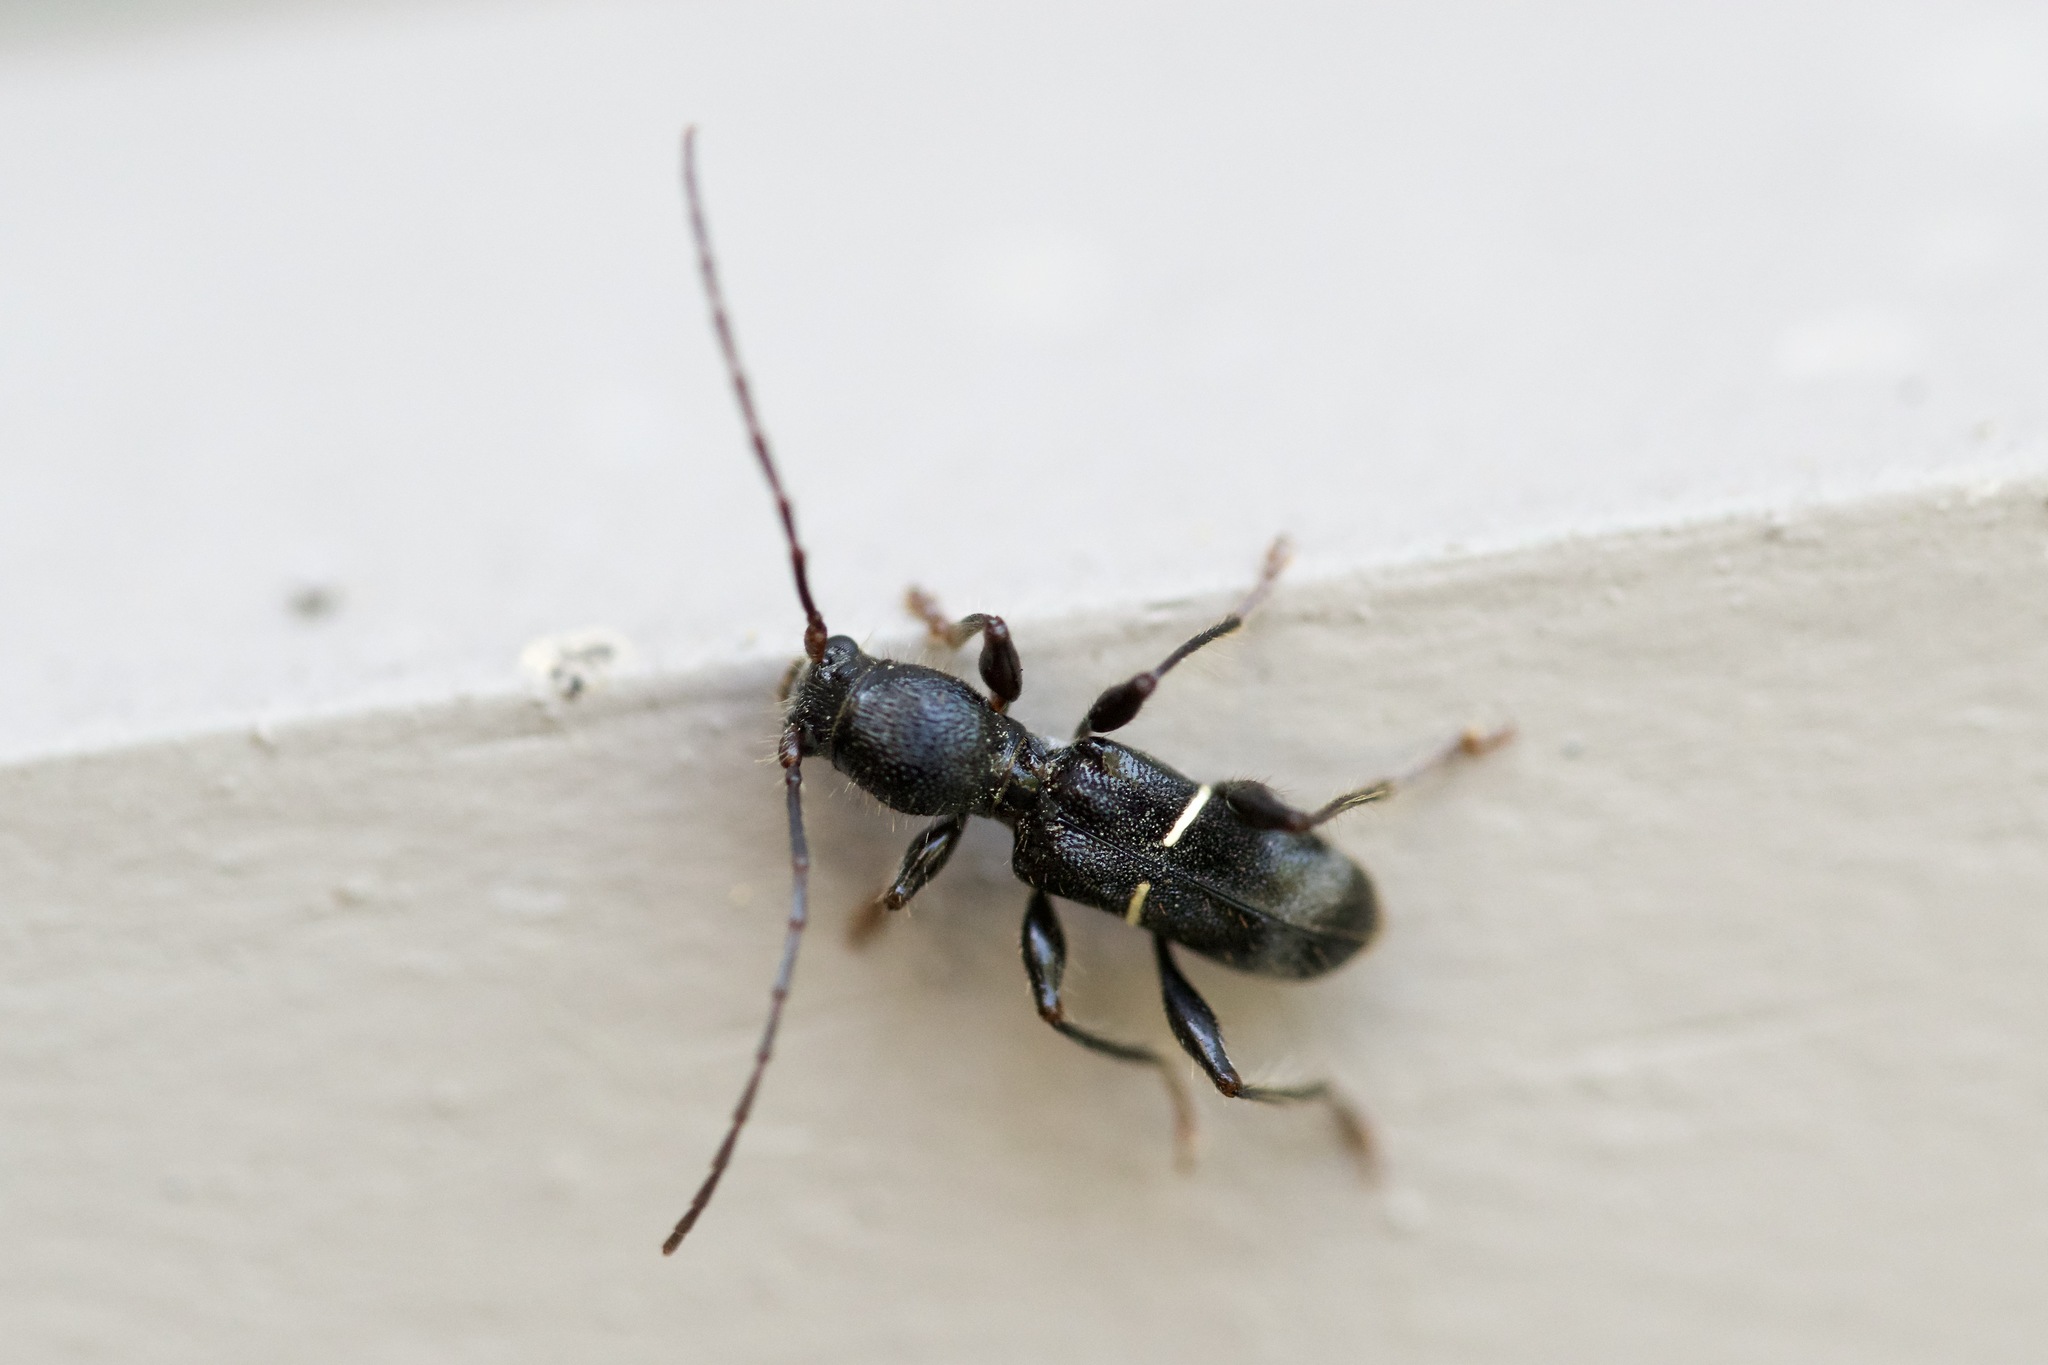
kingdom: Animalia
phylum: Arthropoda
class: Insecta
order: Coleoptera
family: Cerambycidae
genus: Euderces
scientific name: Euderces picipes
